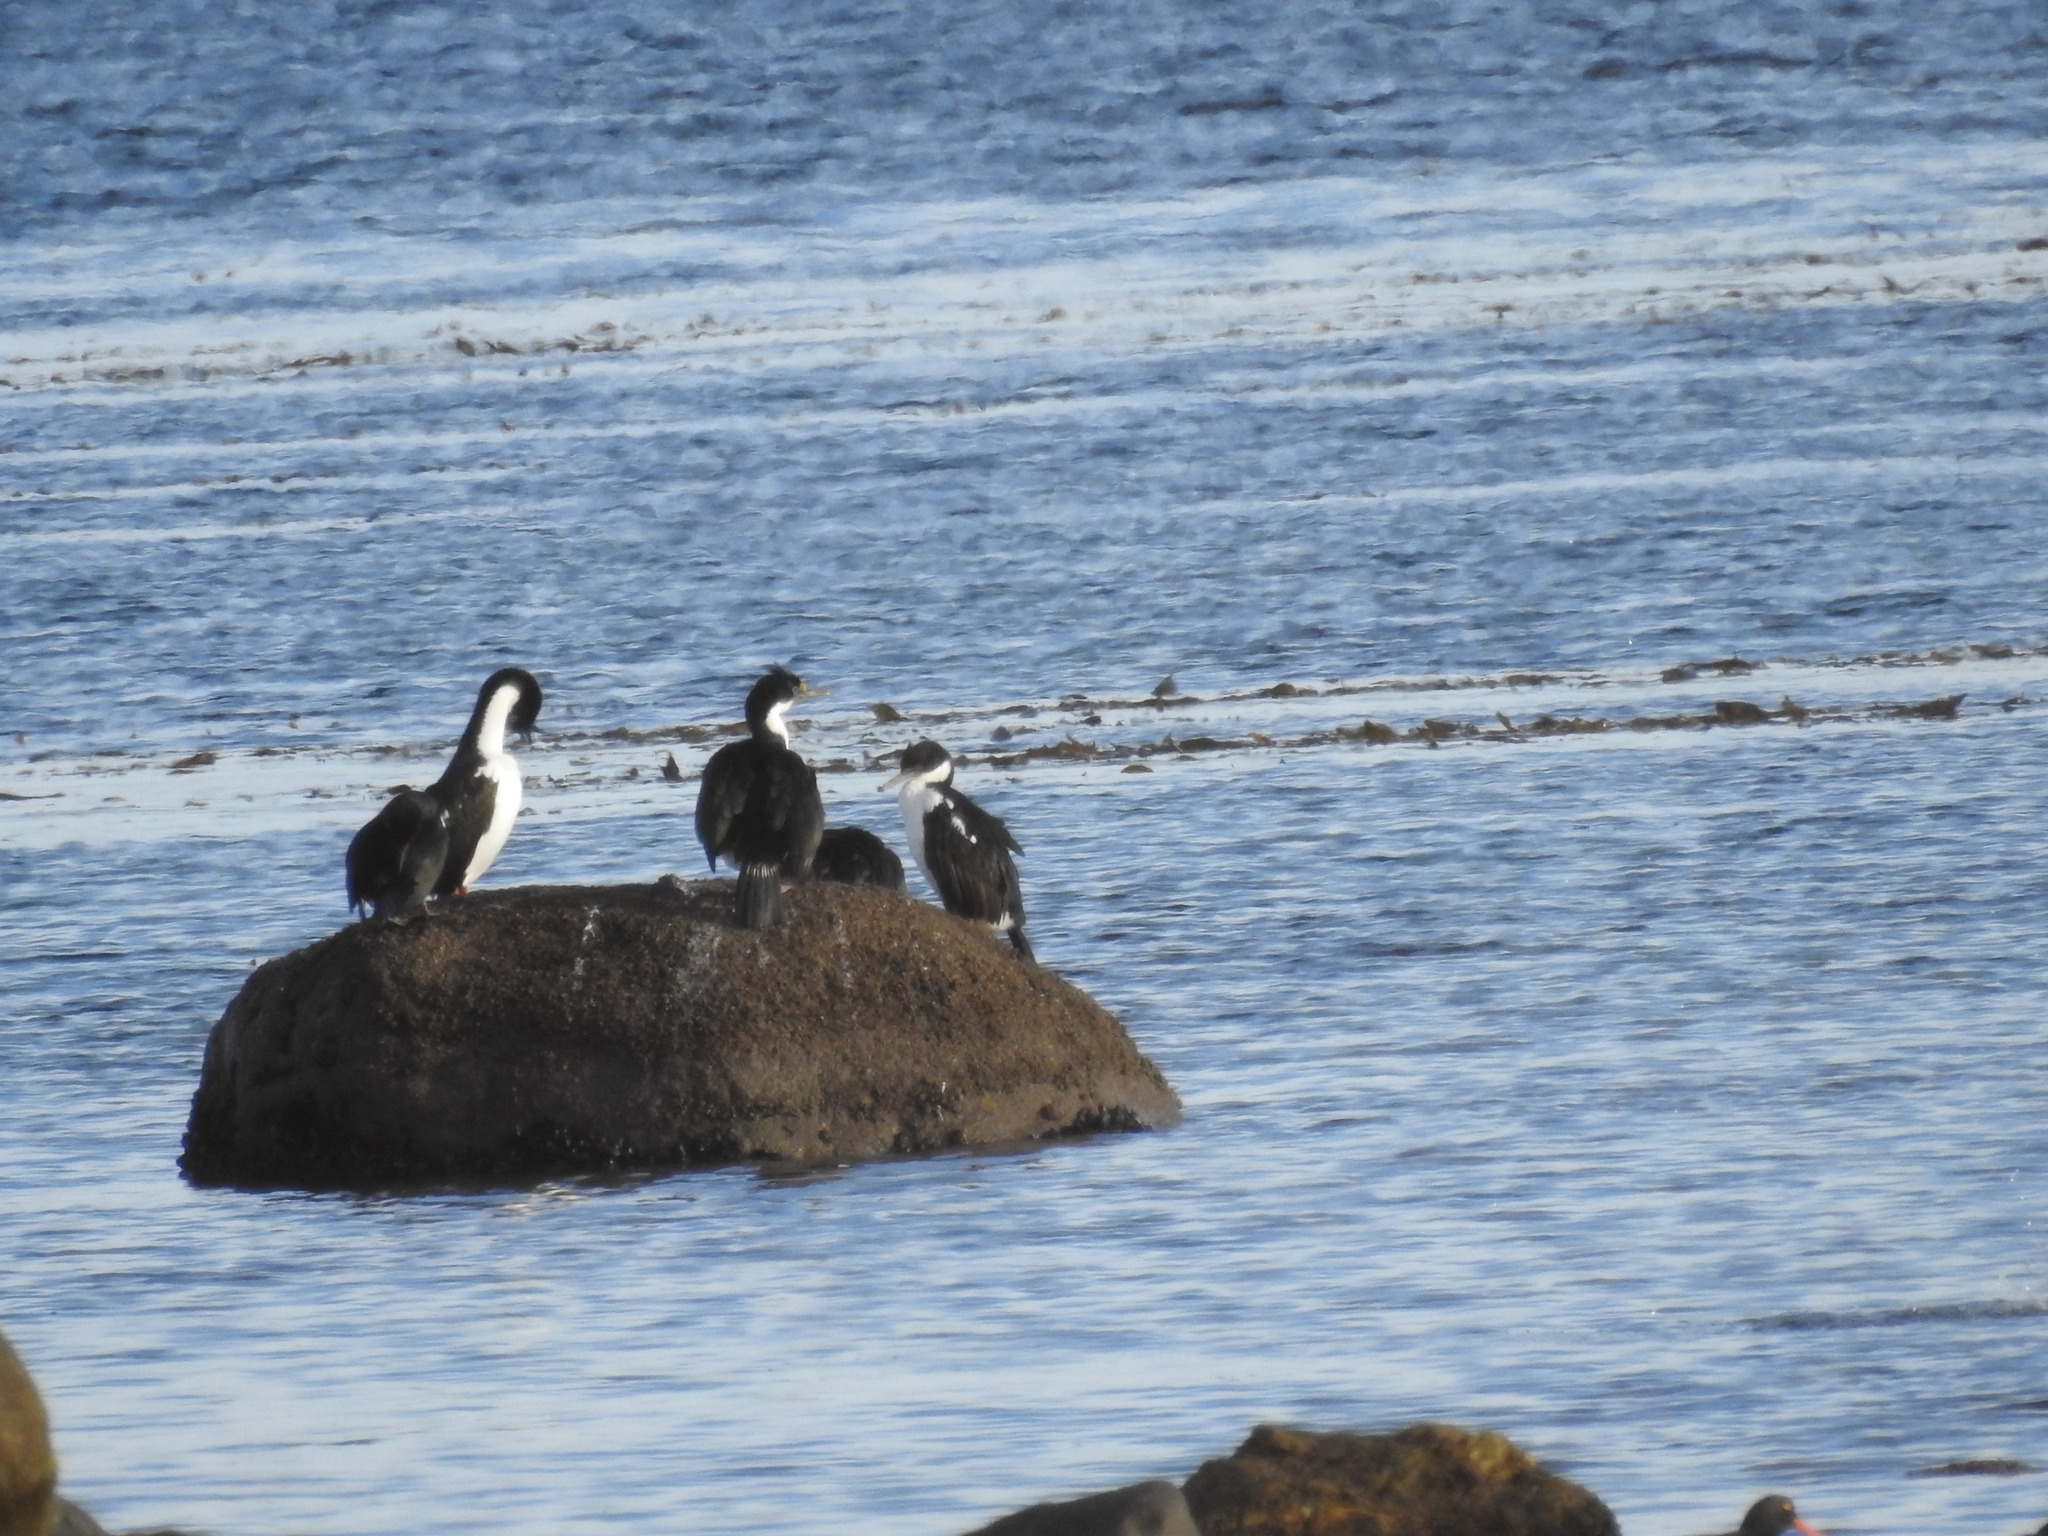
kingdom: Animalia
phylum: Chordata
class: Aves
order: Suliformes
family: Phalacrocoracidae
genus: Leucocarbo
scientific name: Leucocarbo atriceps
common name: Imperial shag
